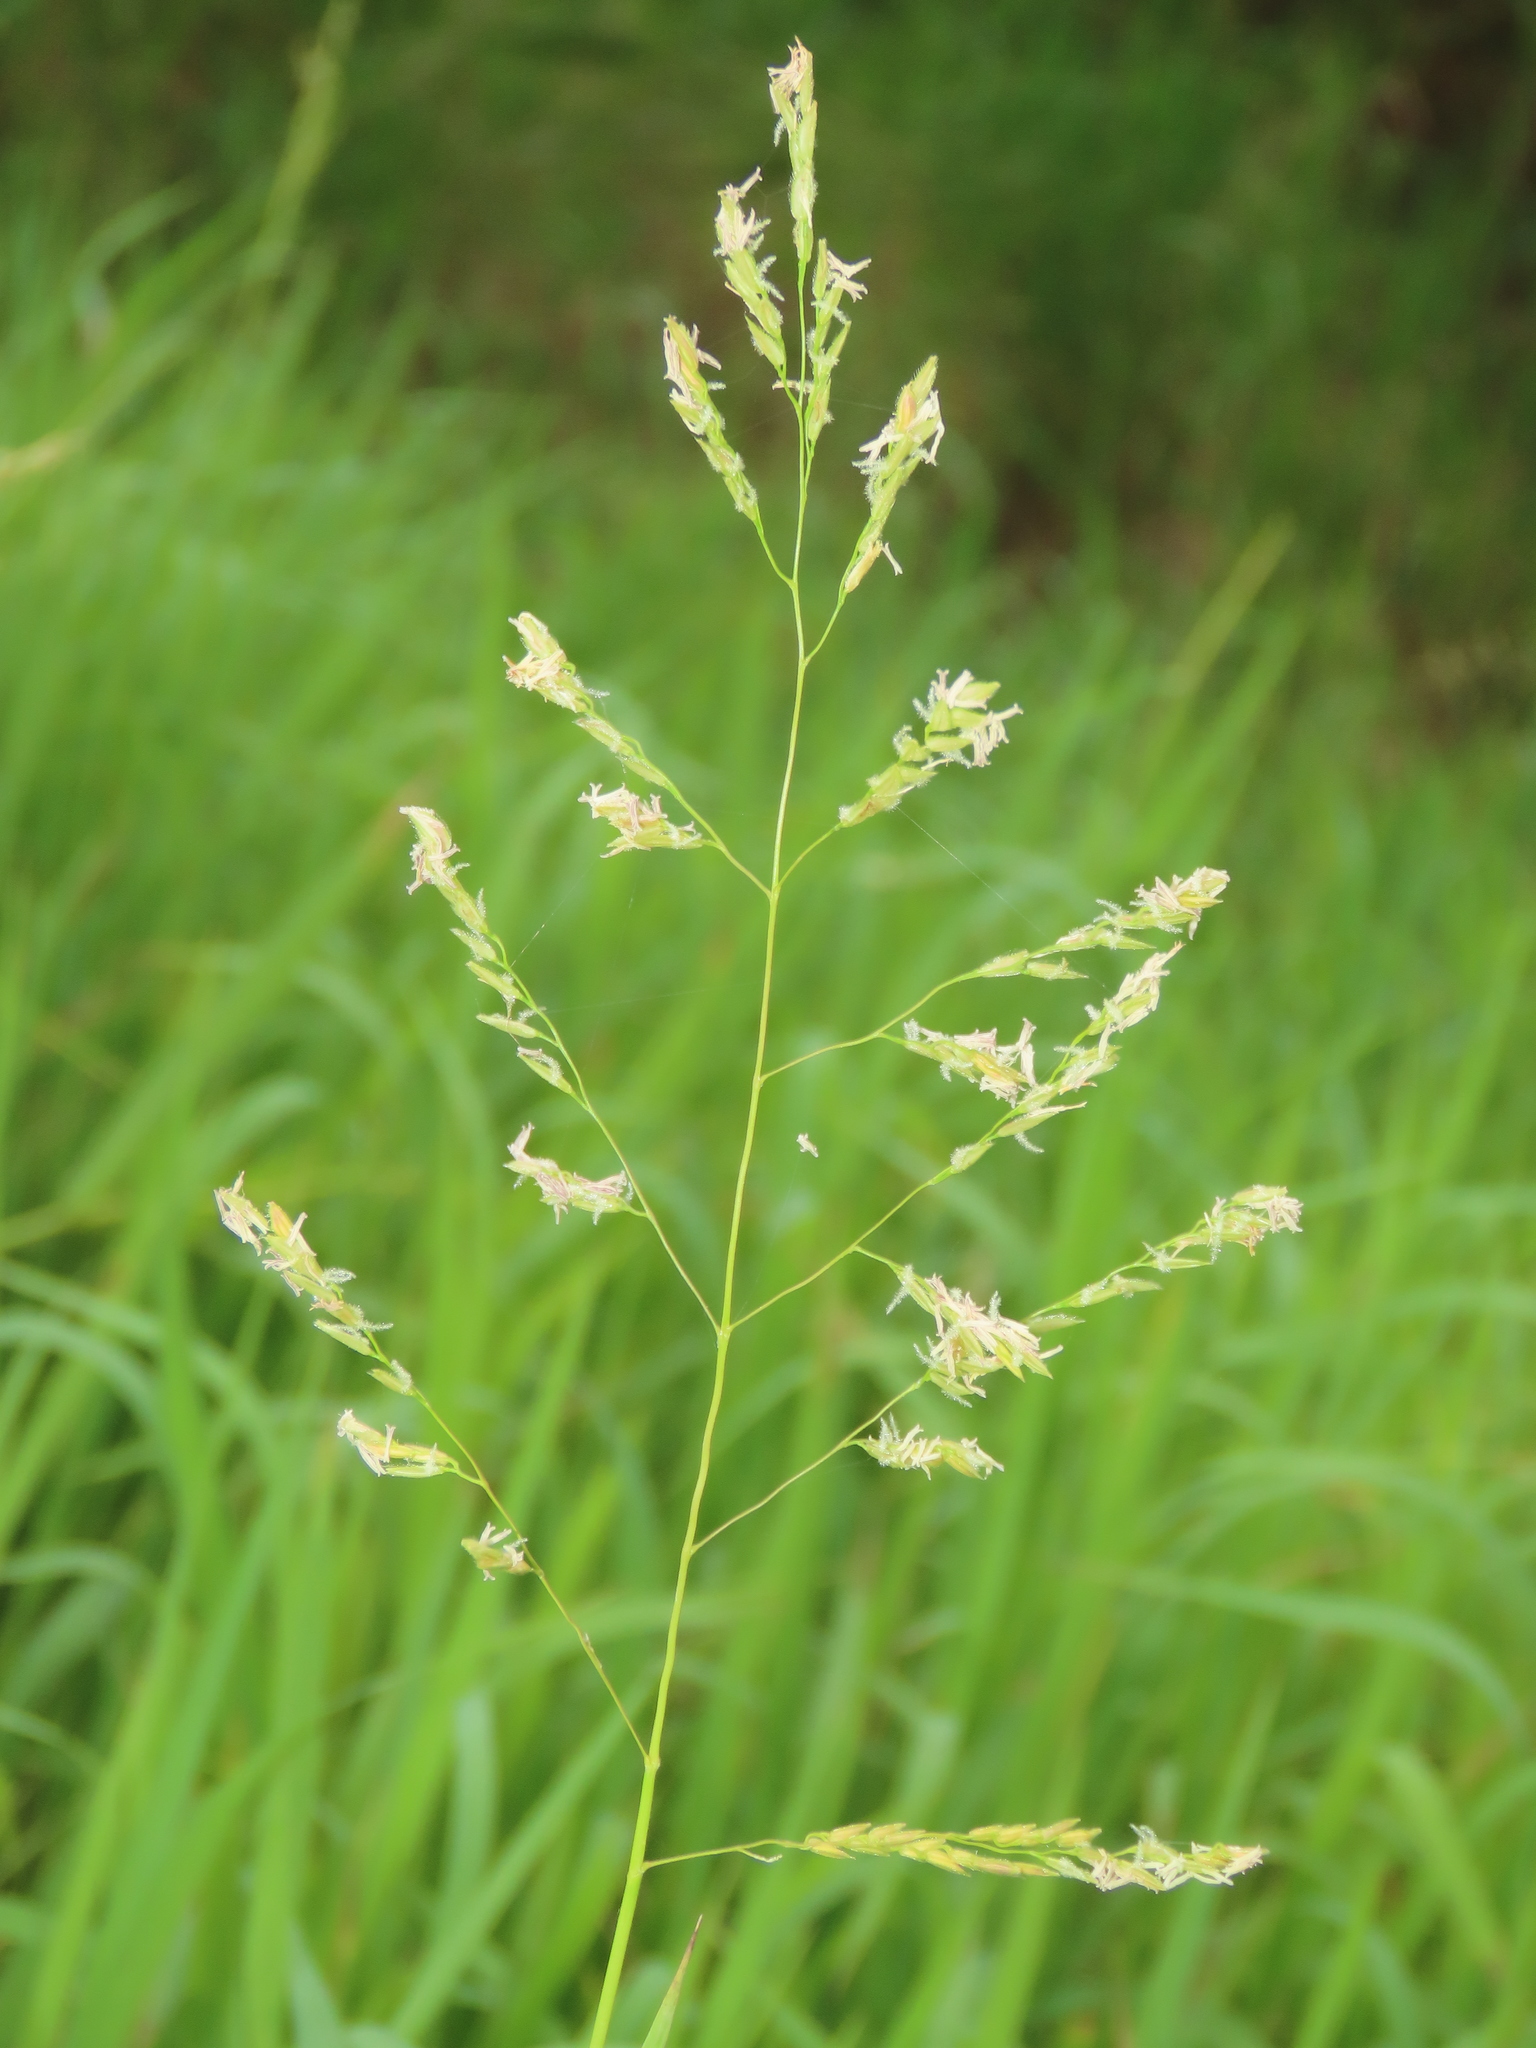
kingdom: Plantae
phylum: Tracheophyta
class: Liliopsida
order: Poales
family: Poaceae
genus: Leersia
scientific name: Leersia hexandra
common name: Southern cut grass
